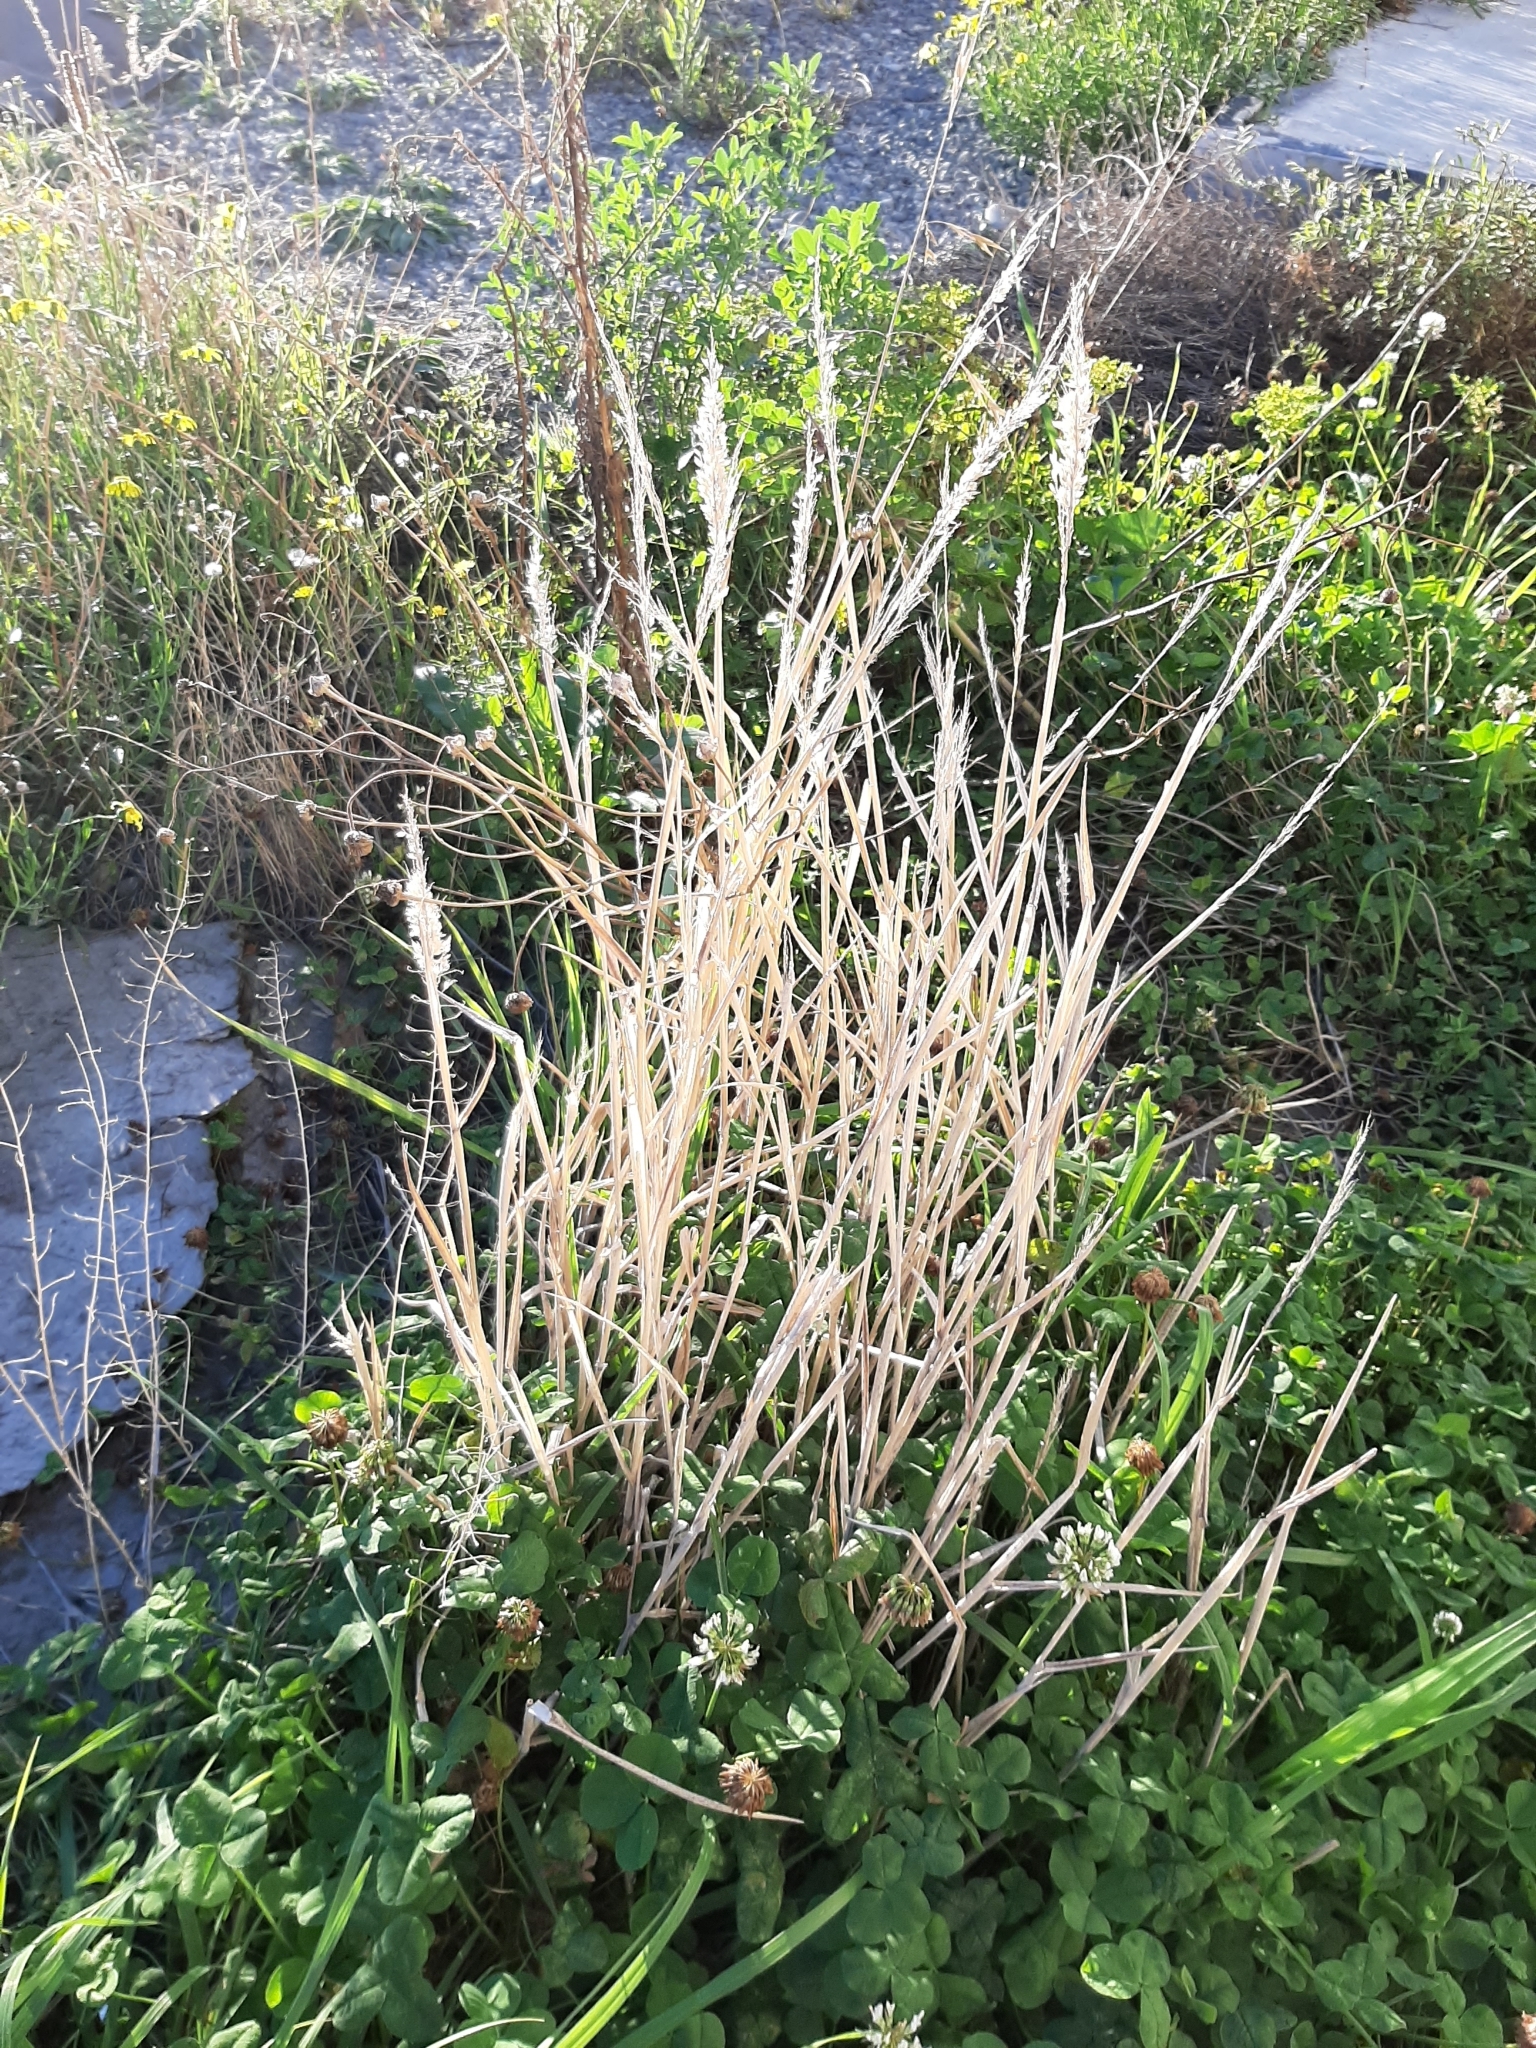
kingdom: Plantae
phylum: Tracheophyta
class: Liliopsida
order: Poales
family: Poaceae
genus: Holcus
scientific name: Holcus lanatus
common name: Yorkshire-fog
